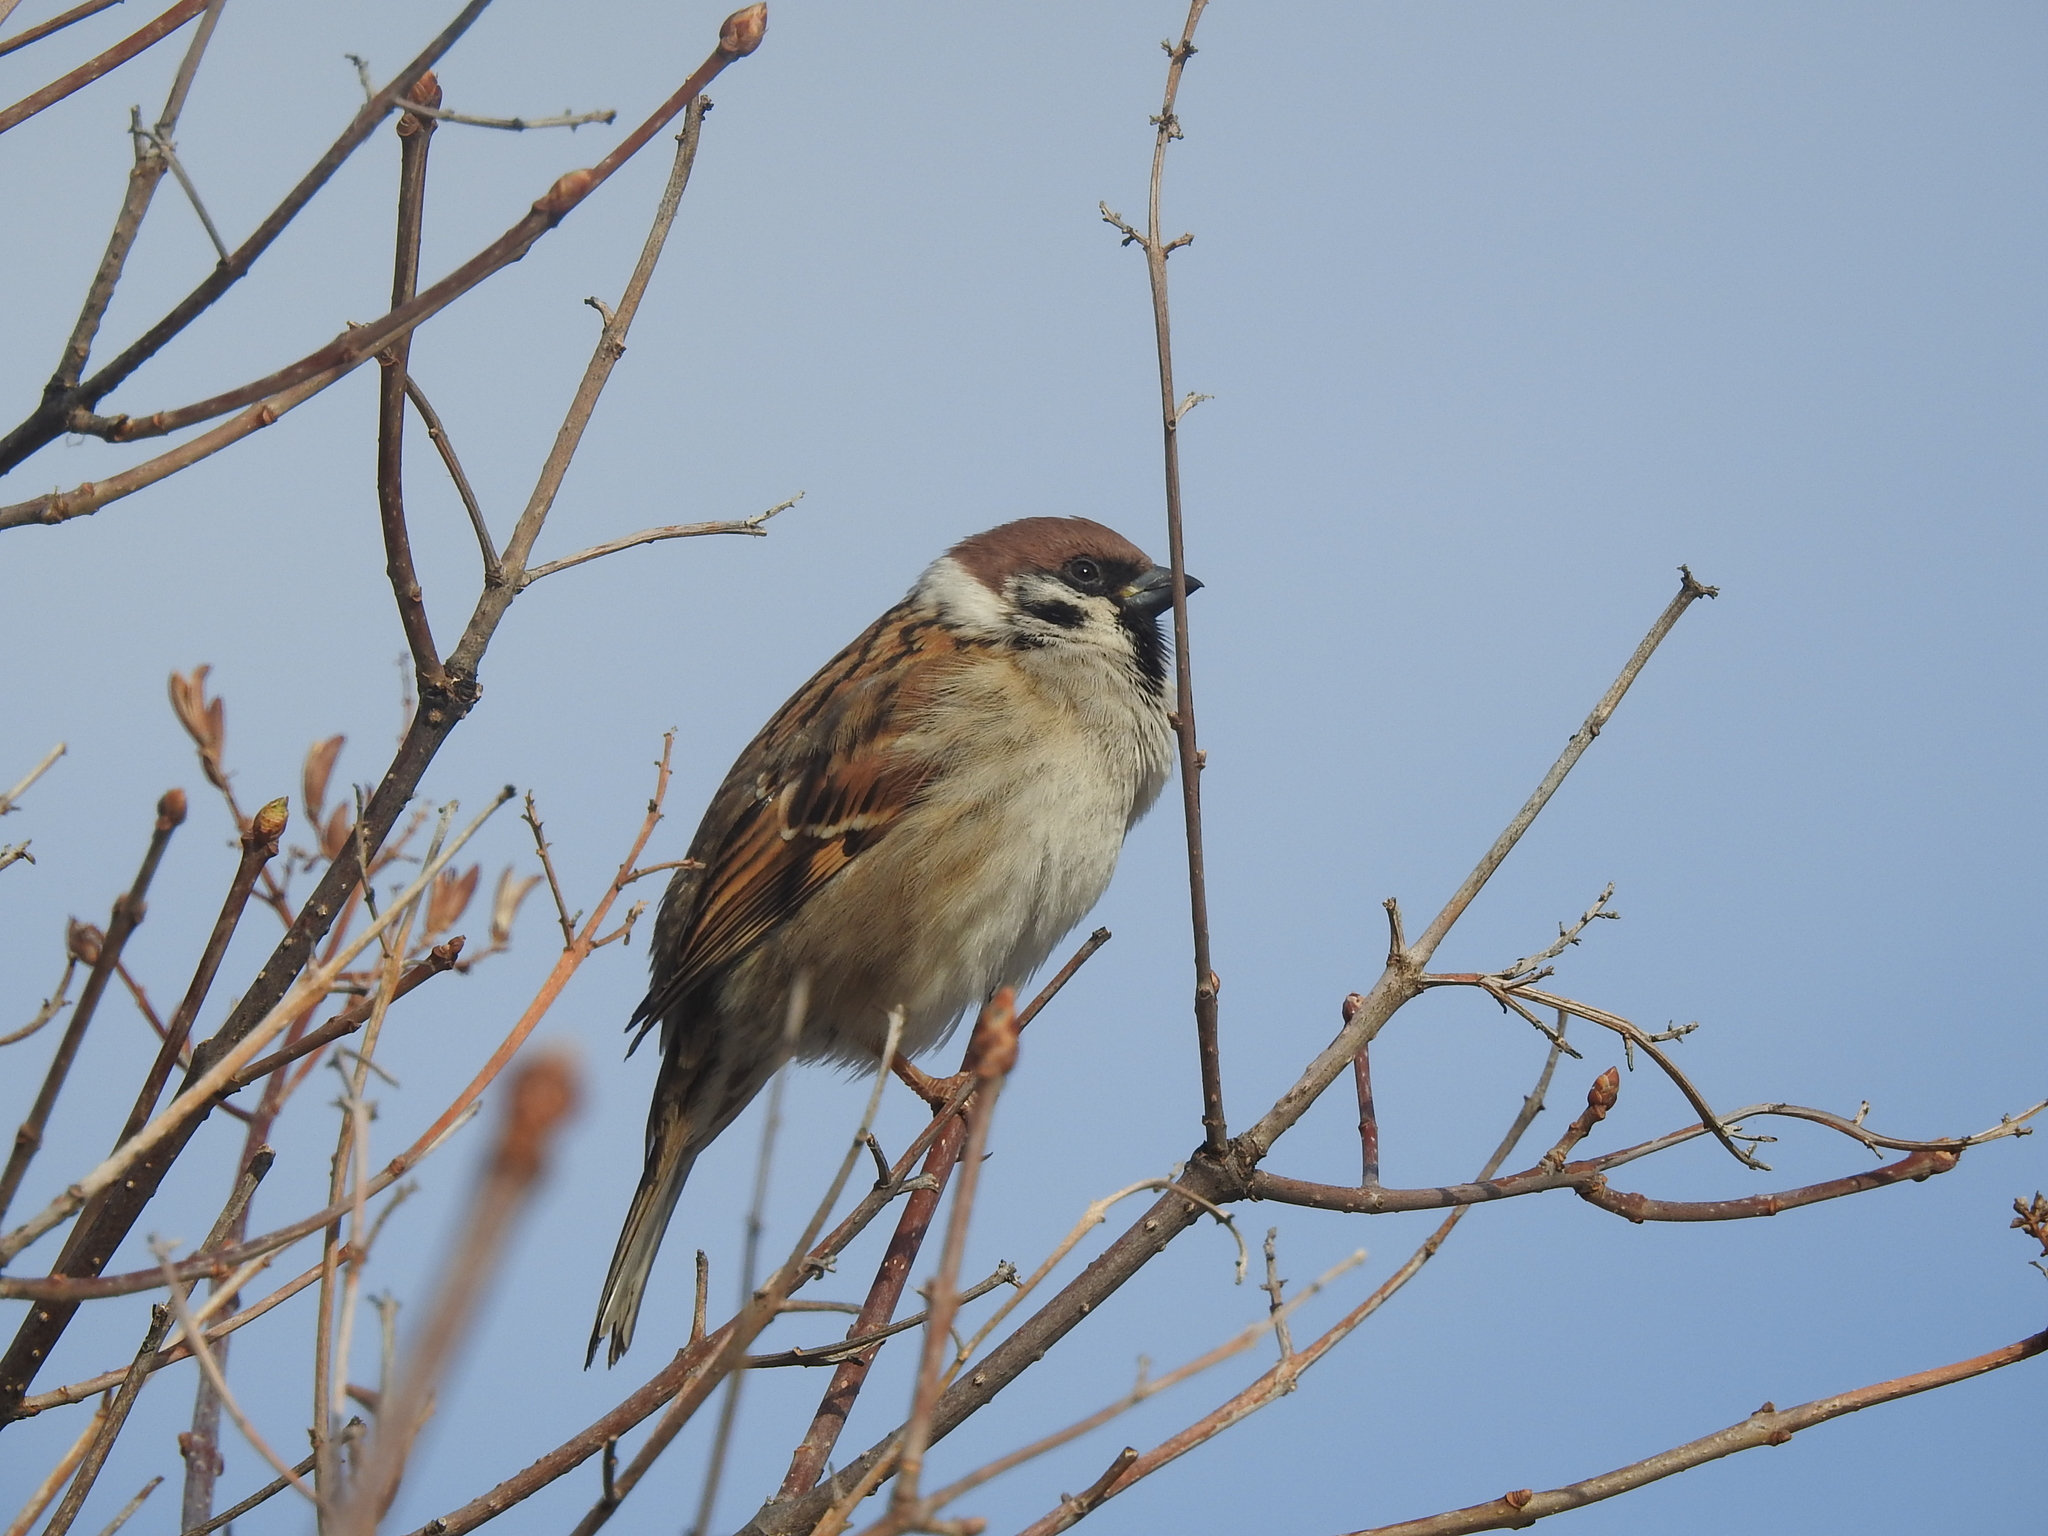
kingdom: Animalia
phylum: Chordata
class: Aves
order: Passeriformes
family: Passeridae
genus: Passer
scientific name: Passer montanus
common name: Eurasian tree sparrow
